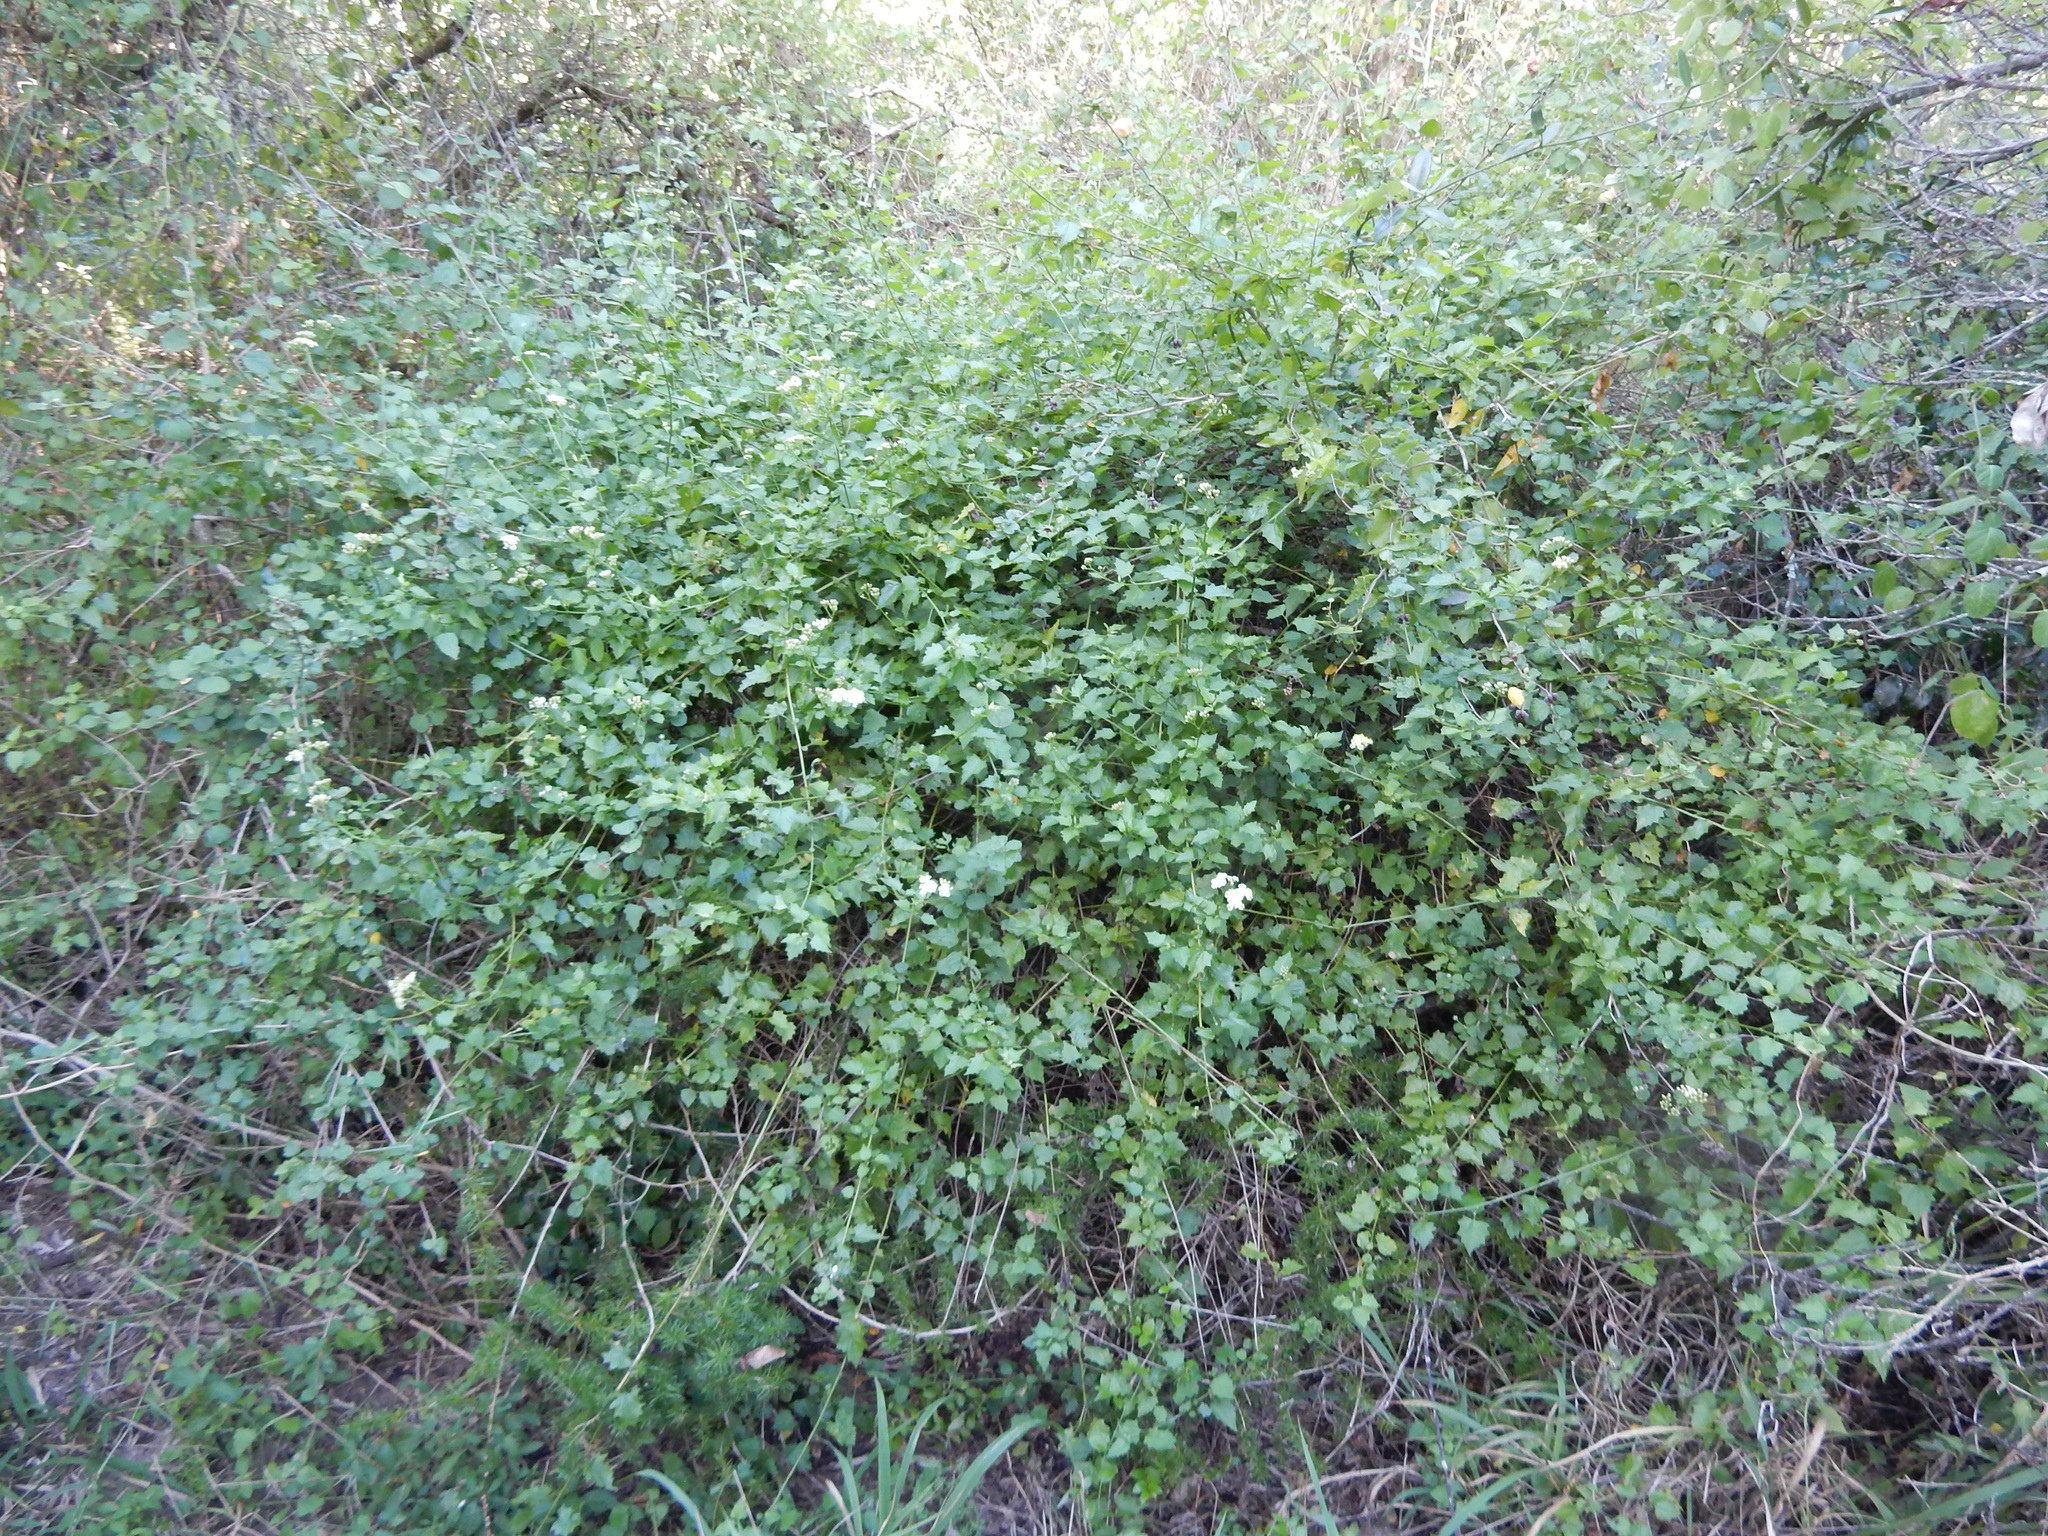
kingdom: Plantae
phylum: Tracheophyta
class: Magnoliopsida
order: Asterales
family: Asteraceae
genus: Microglossa
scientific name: Microglossa mespilifolia
